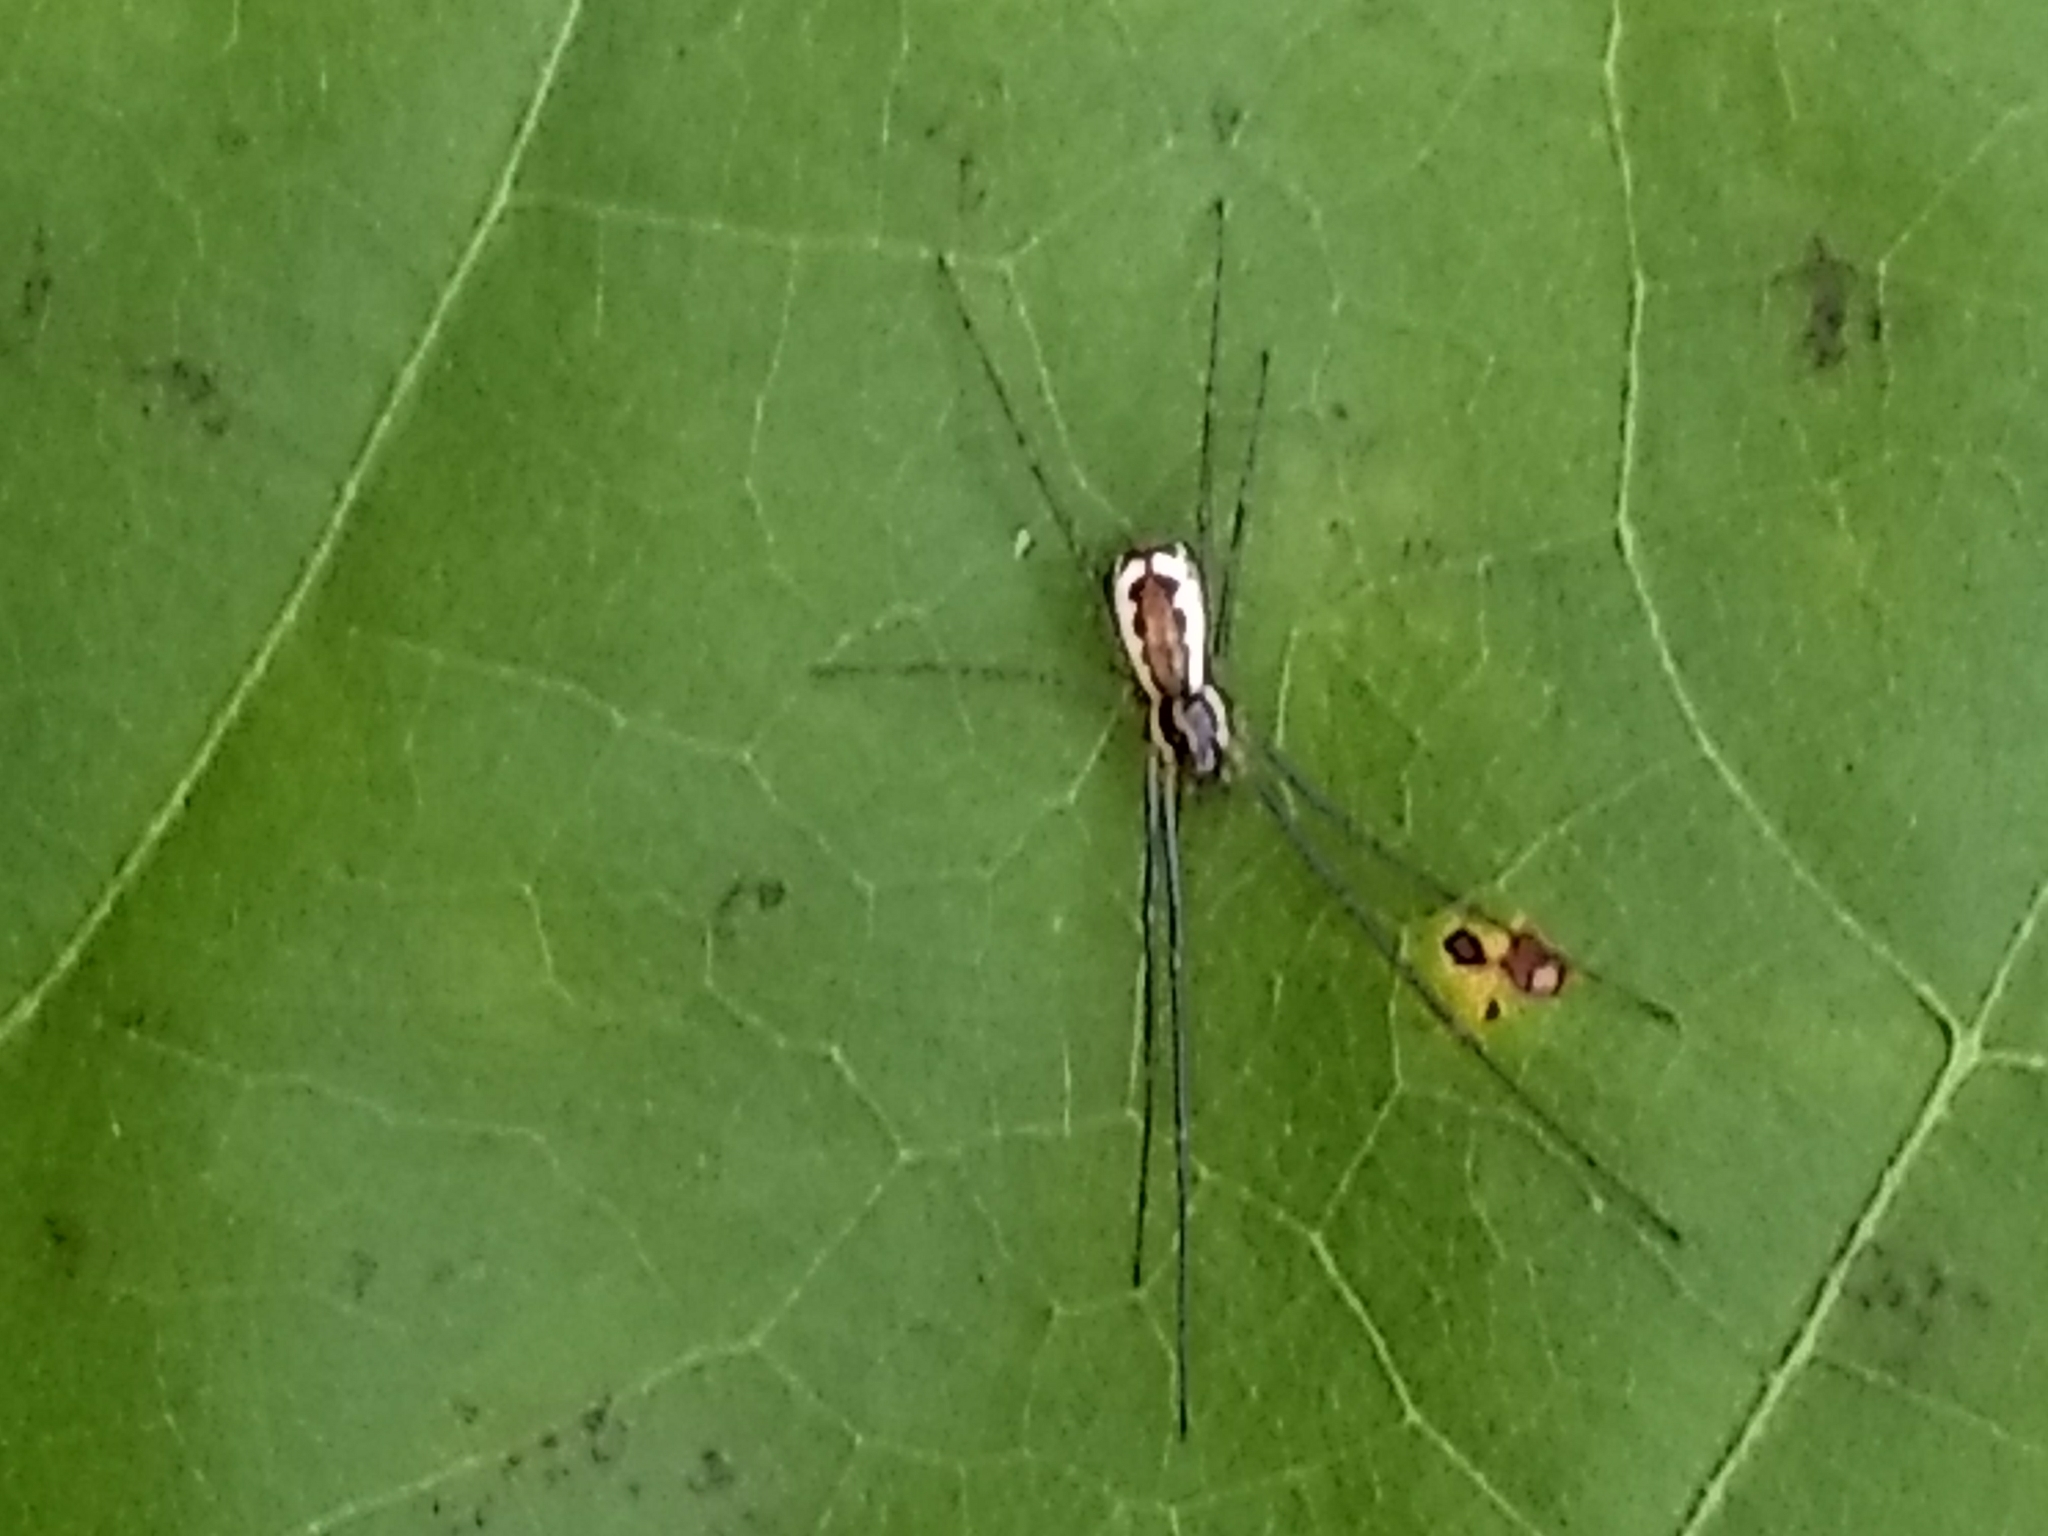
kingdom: Animalia
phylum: Arthropoda
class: Arachnida
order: Araneae
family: Linyphiidae
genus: Neriene
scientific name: Neriene radiata
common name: Filmy dome spider
